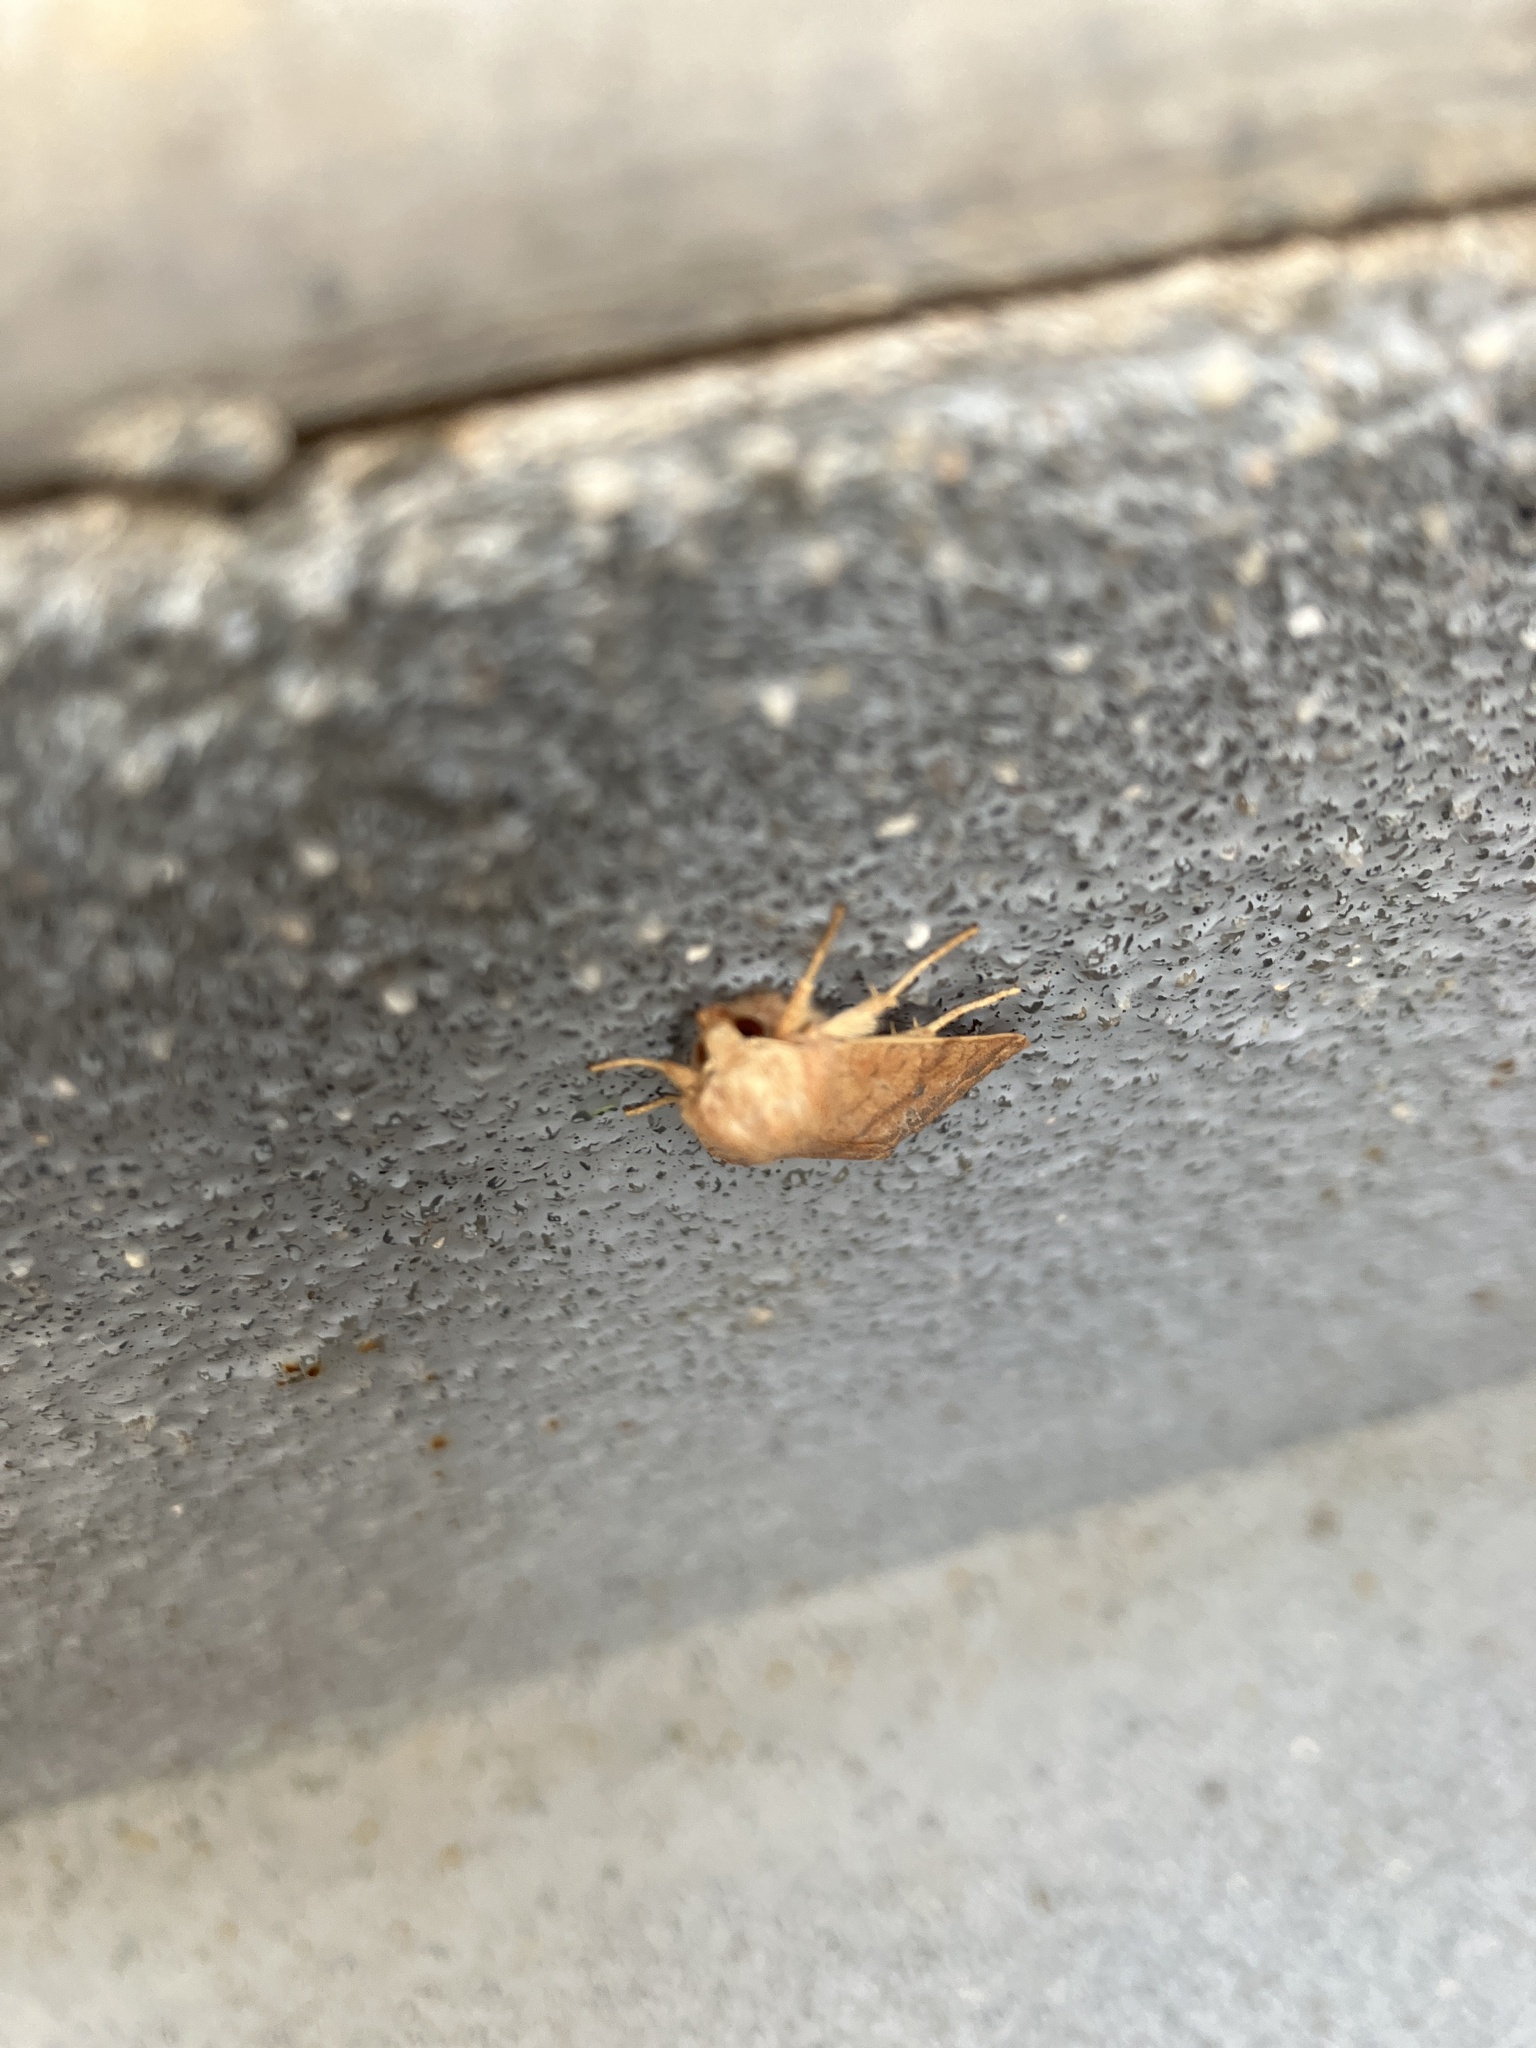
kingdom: Animalia
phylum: Arthropoda
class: Insecta
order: Lepidoptera
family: Noctuidae
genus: Agrochola
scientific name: Agrochola bicolorago
